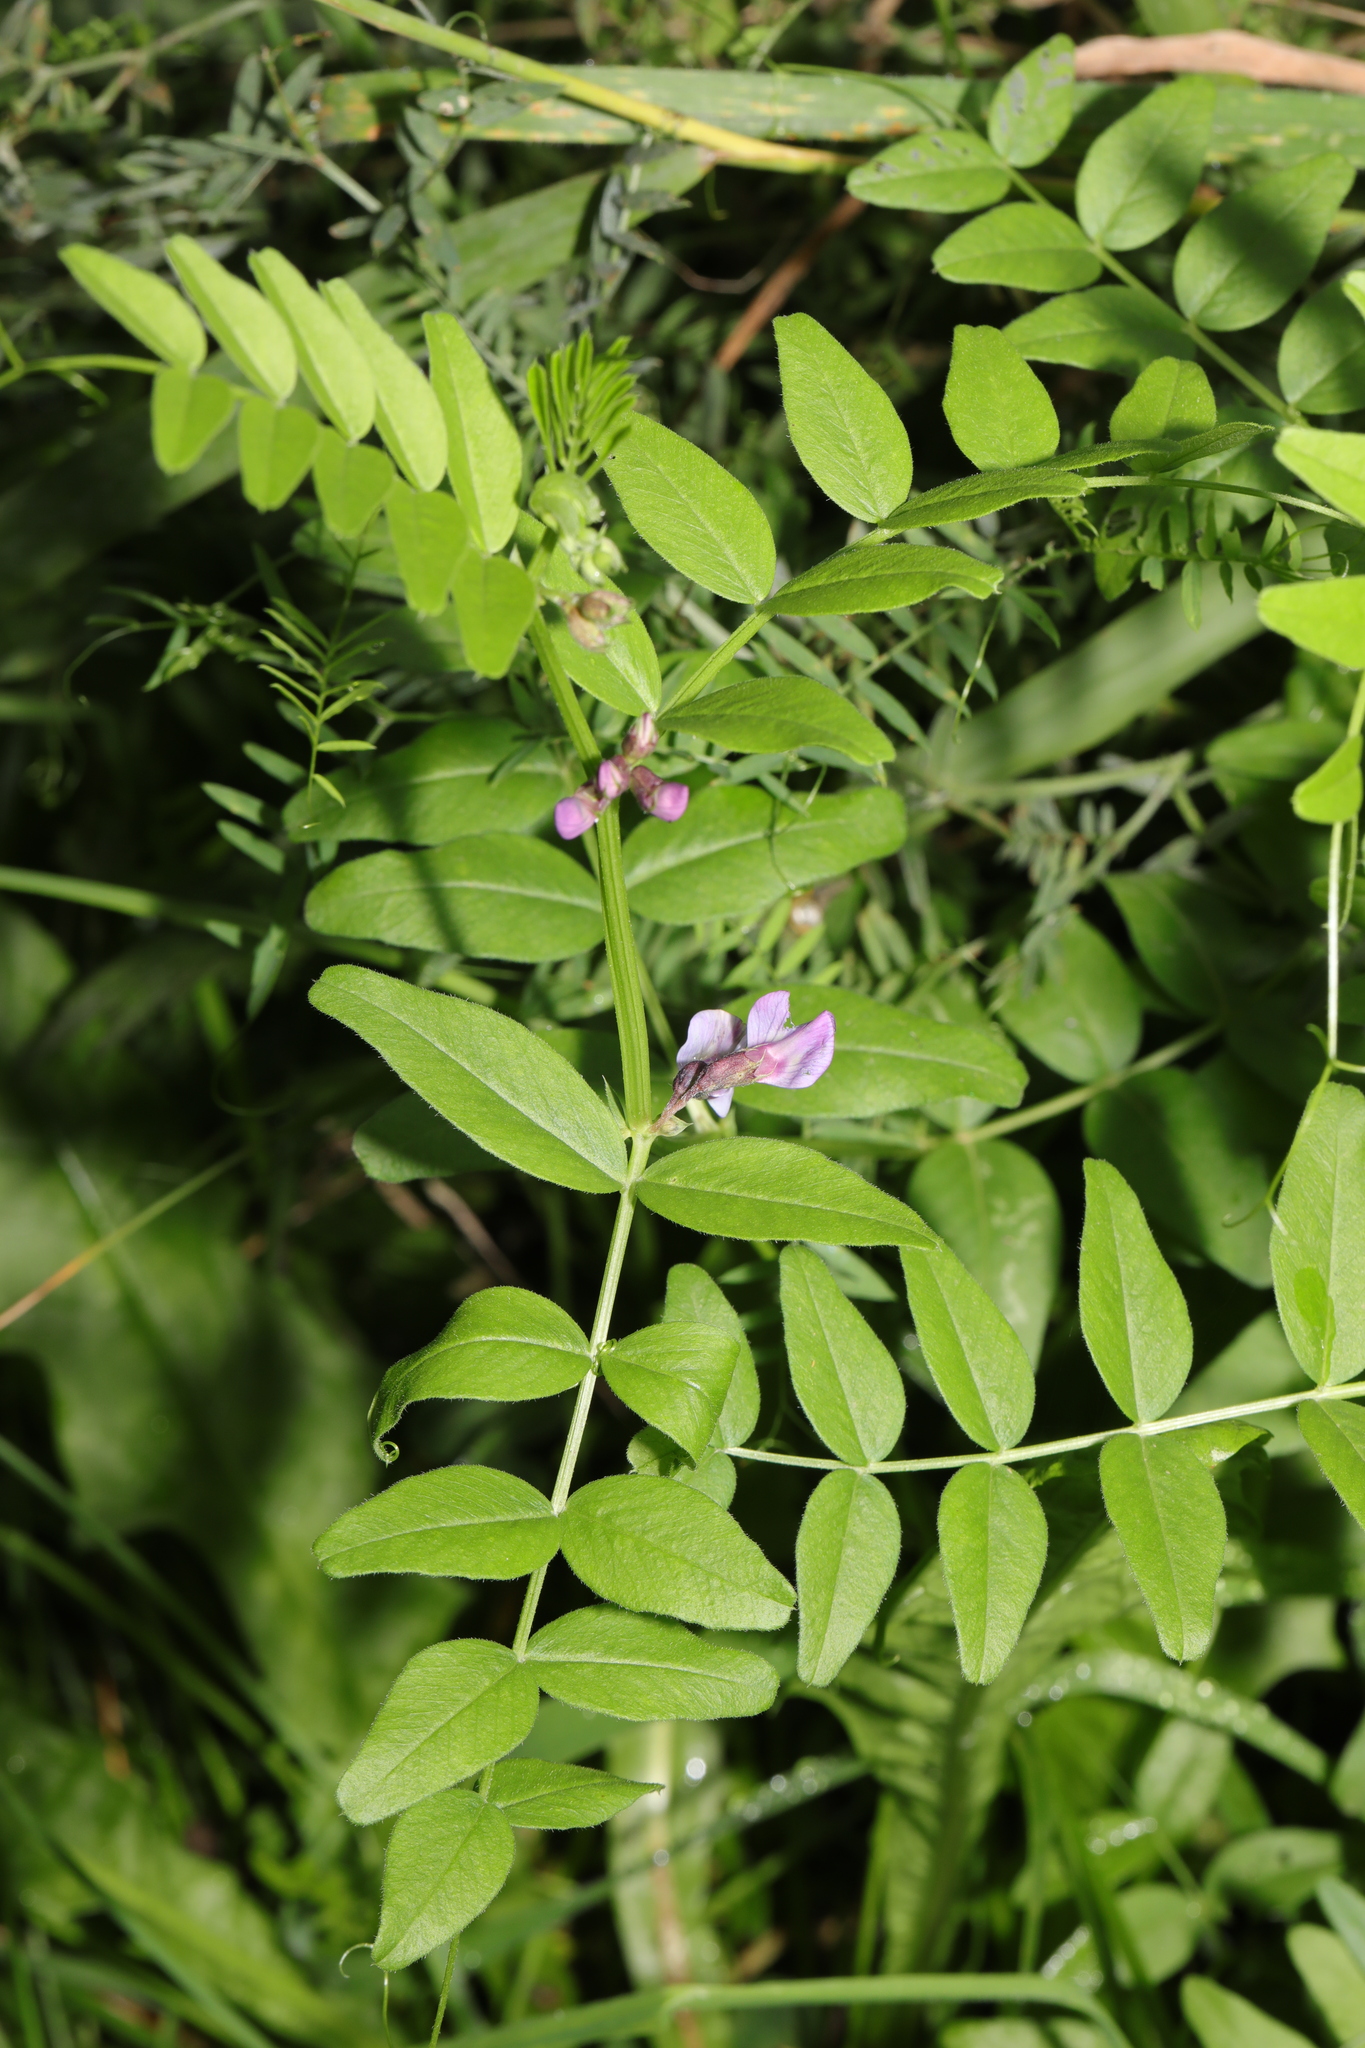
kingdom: Plantae
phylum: Tracheophyta
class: Magnoliopsida
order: Fabales
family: Fabaceae
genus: Vicia
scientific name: Vicia sepium
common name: Bush vetch
